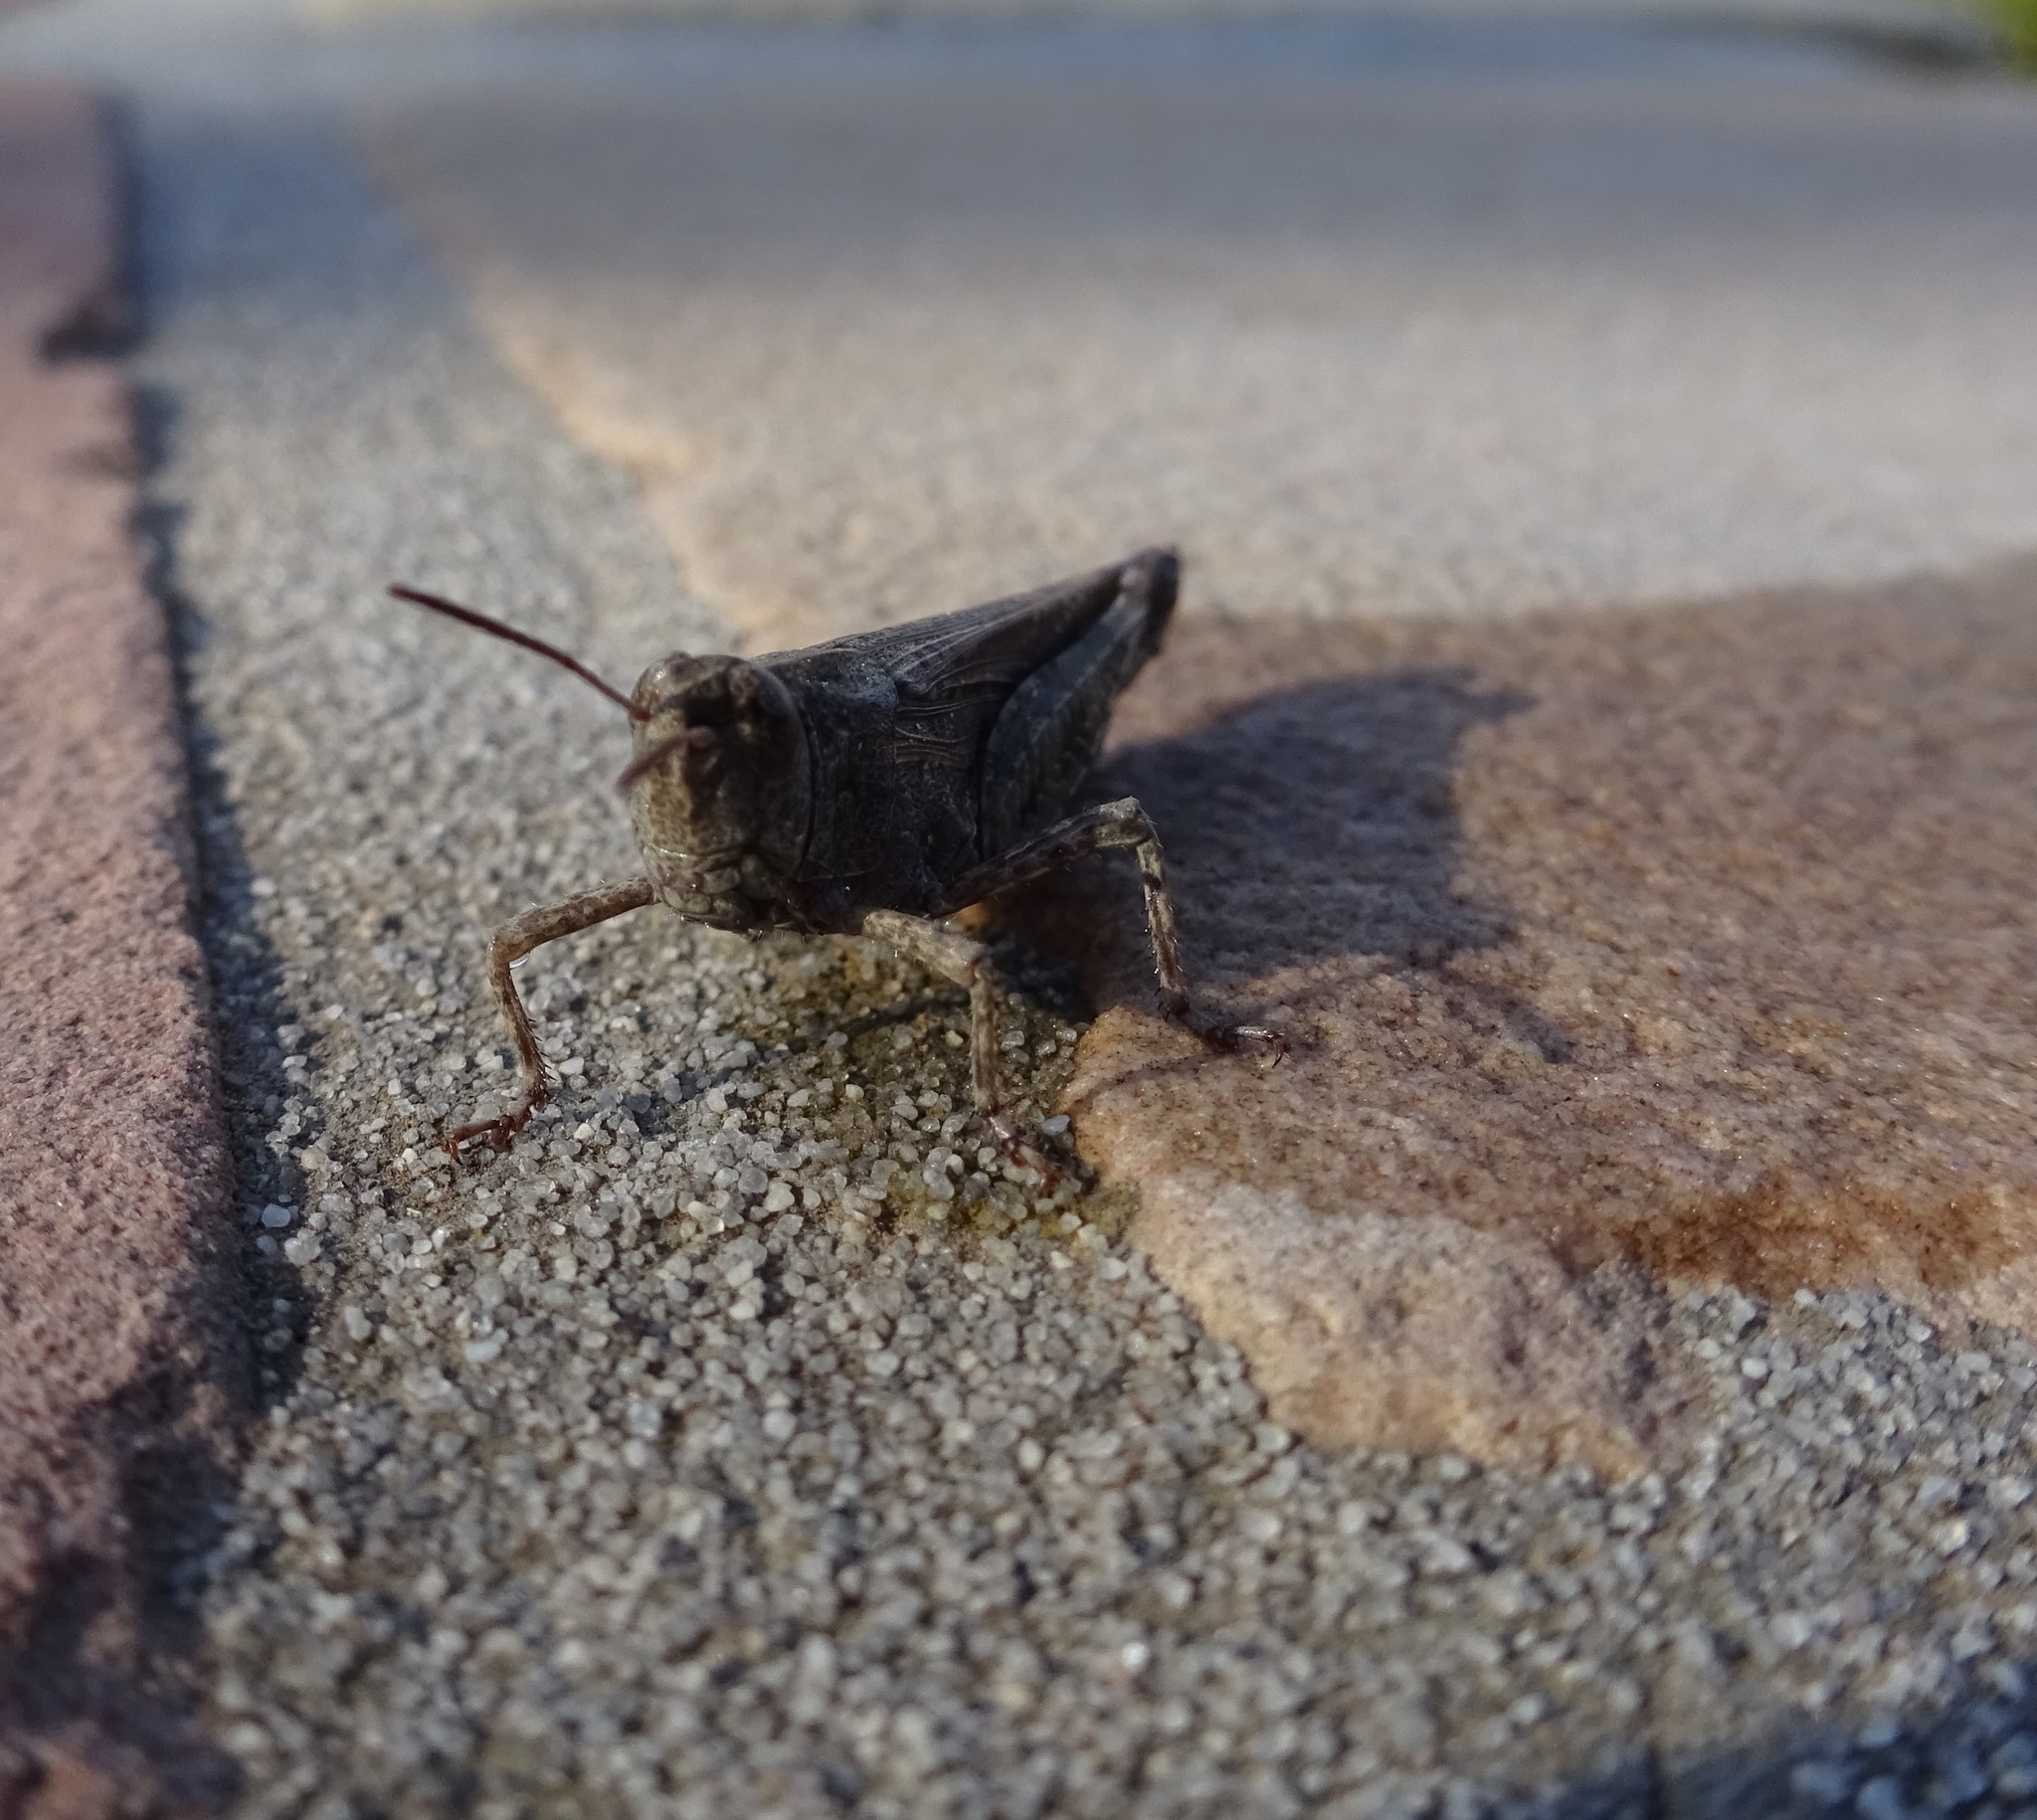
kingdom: Animalia
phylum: Arthropoda
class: Insecta
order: Orthoptera
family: Acrididae
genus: Aiolopus
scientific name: Aiolopus strepens
